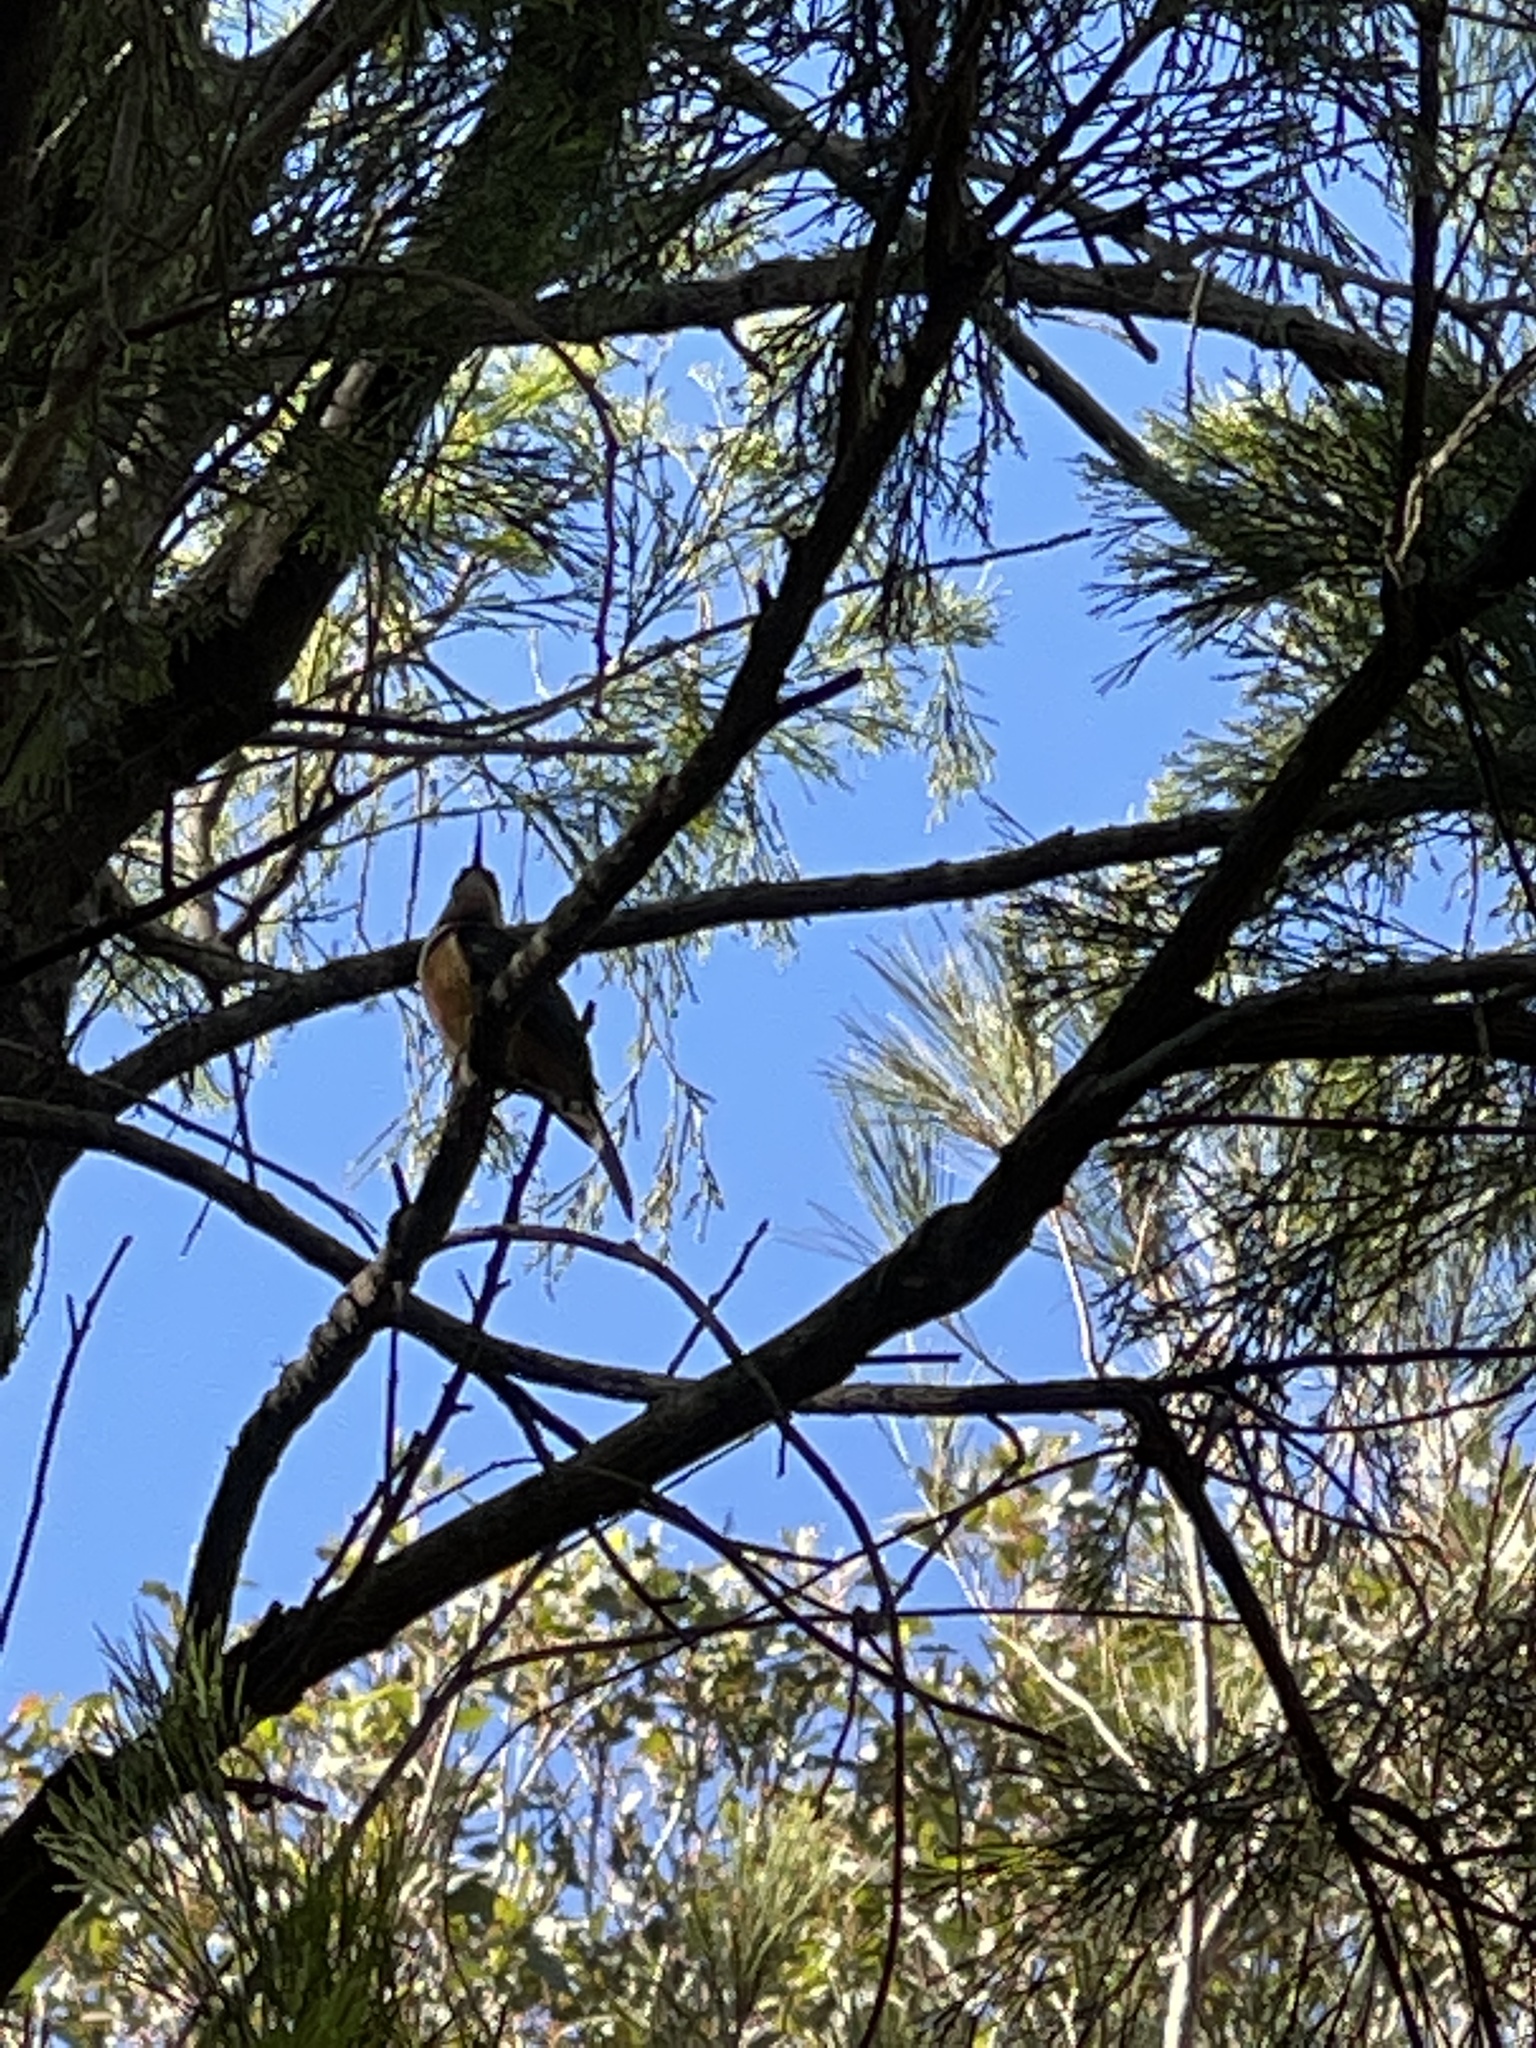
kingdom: Animalia
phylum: Chordata
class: Aves
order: Passeriformes
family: Meliphagidae
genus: Acanthorhynchus
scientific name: Acanthorhynchus tenuirostris
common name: Eastern spinebill
